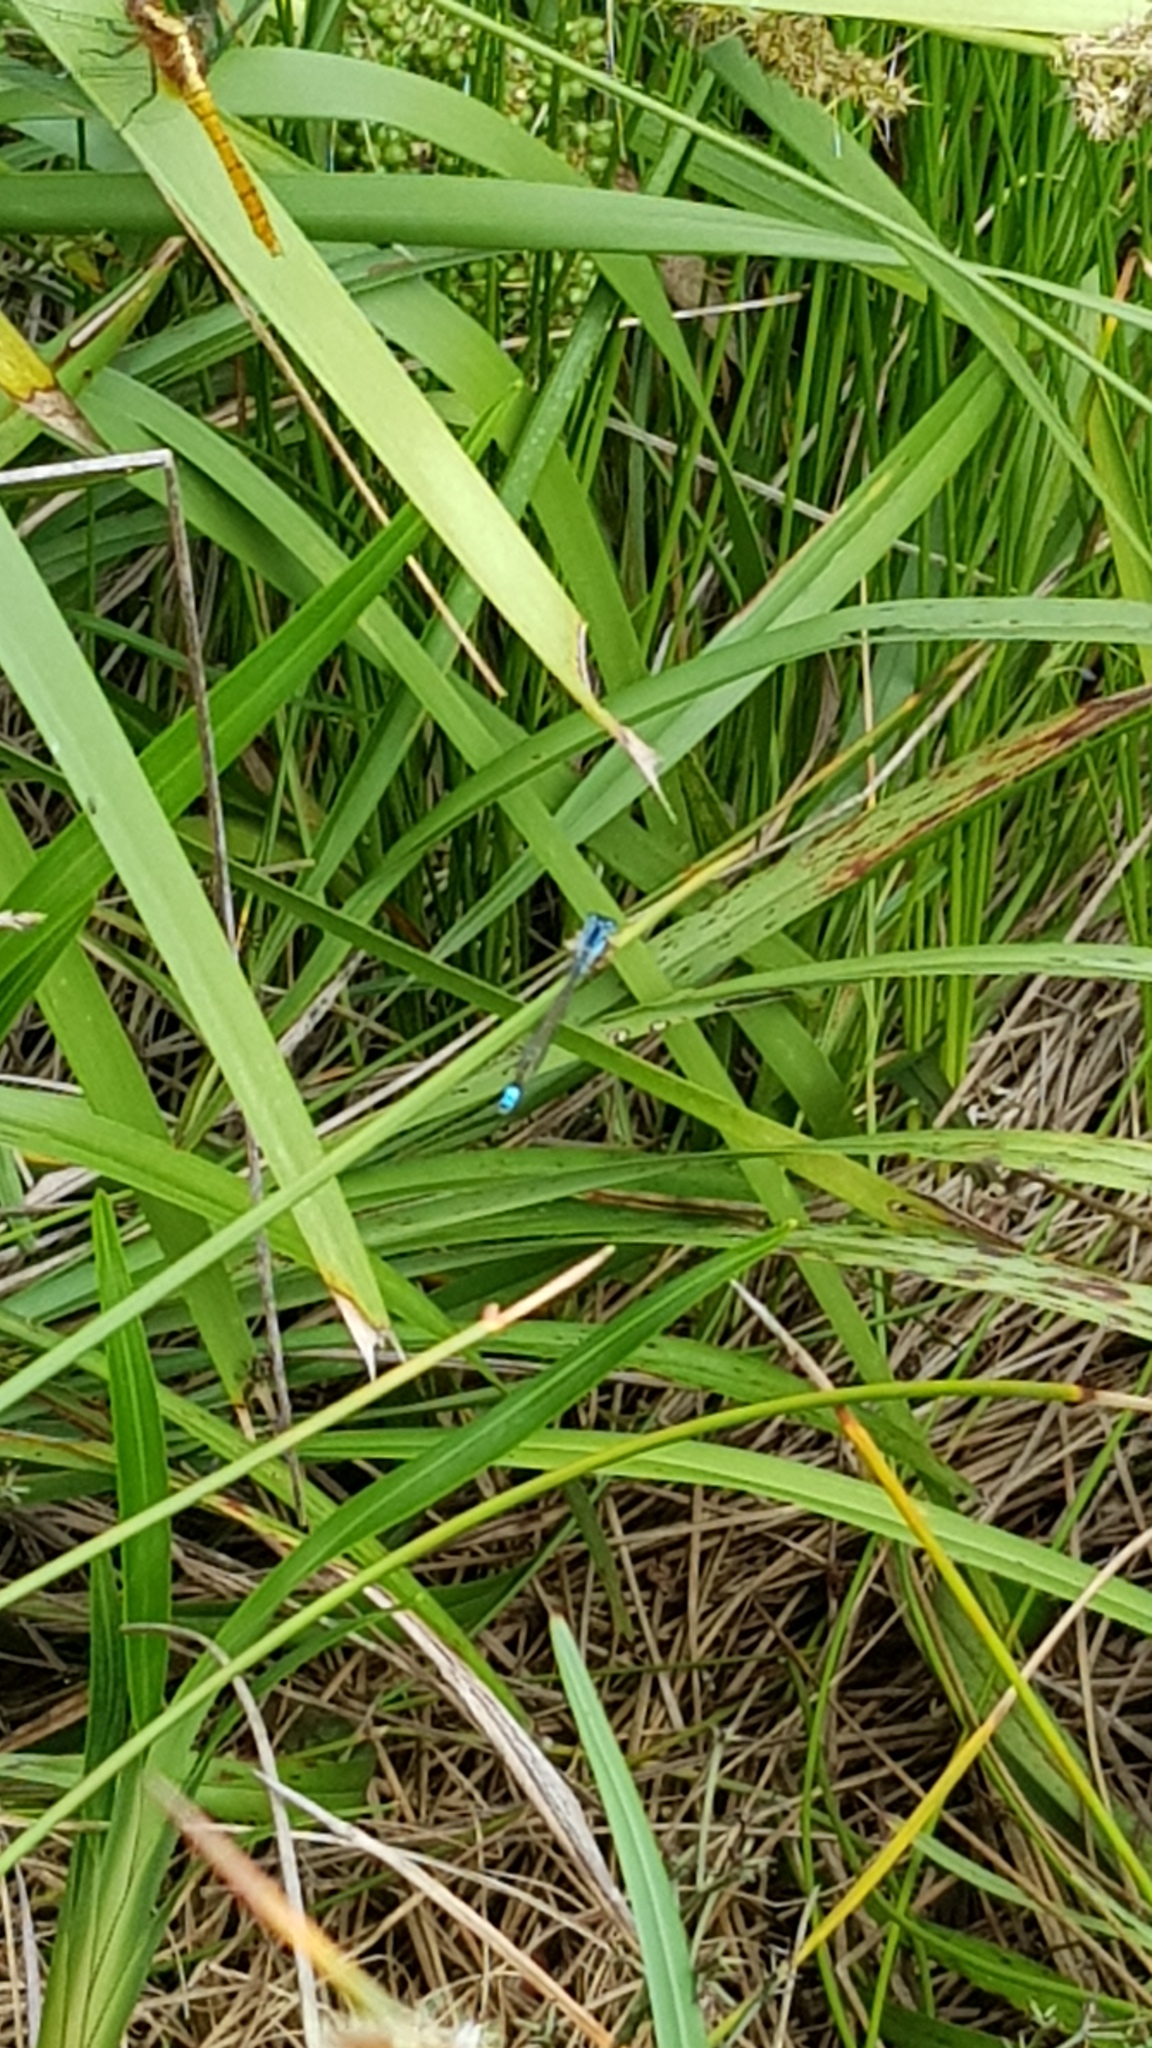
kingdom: Animalia
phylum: Arthropoda
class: Insecta
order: Odonata
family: Coenagrionidae
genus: Ischnura
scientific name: Ischnura heterosticta
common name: Common bluetail
